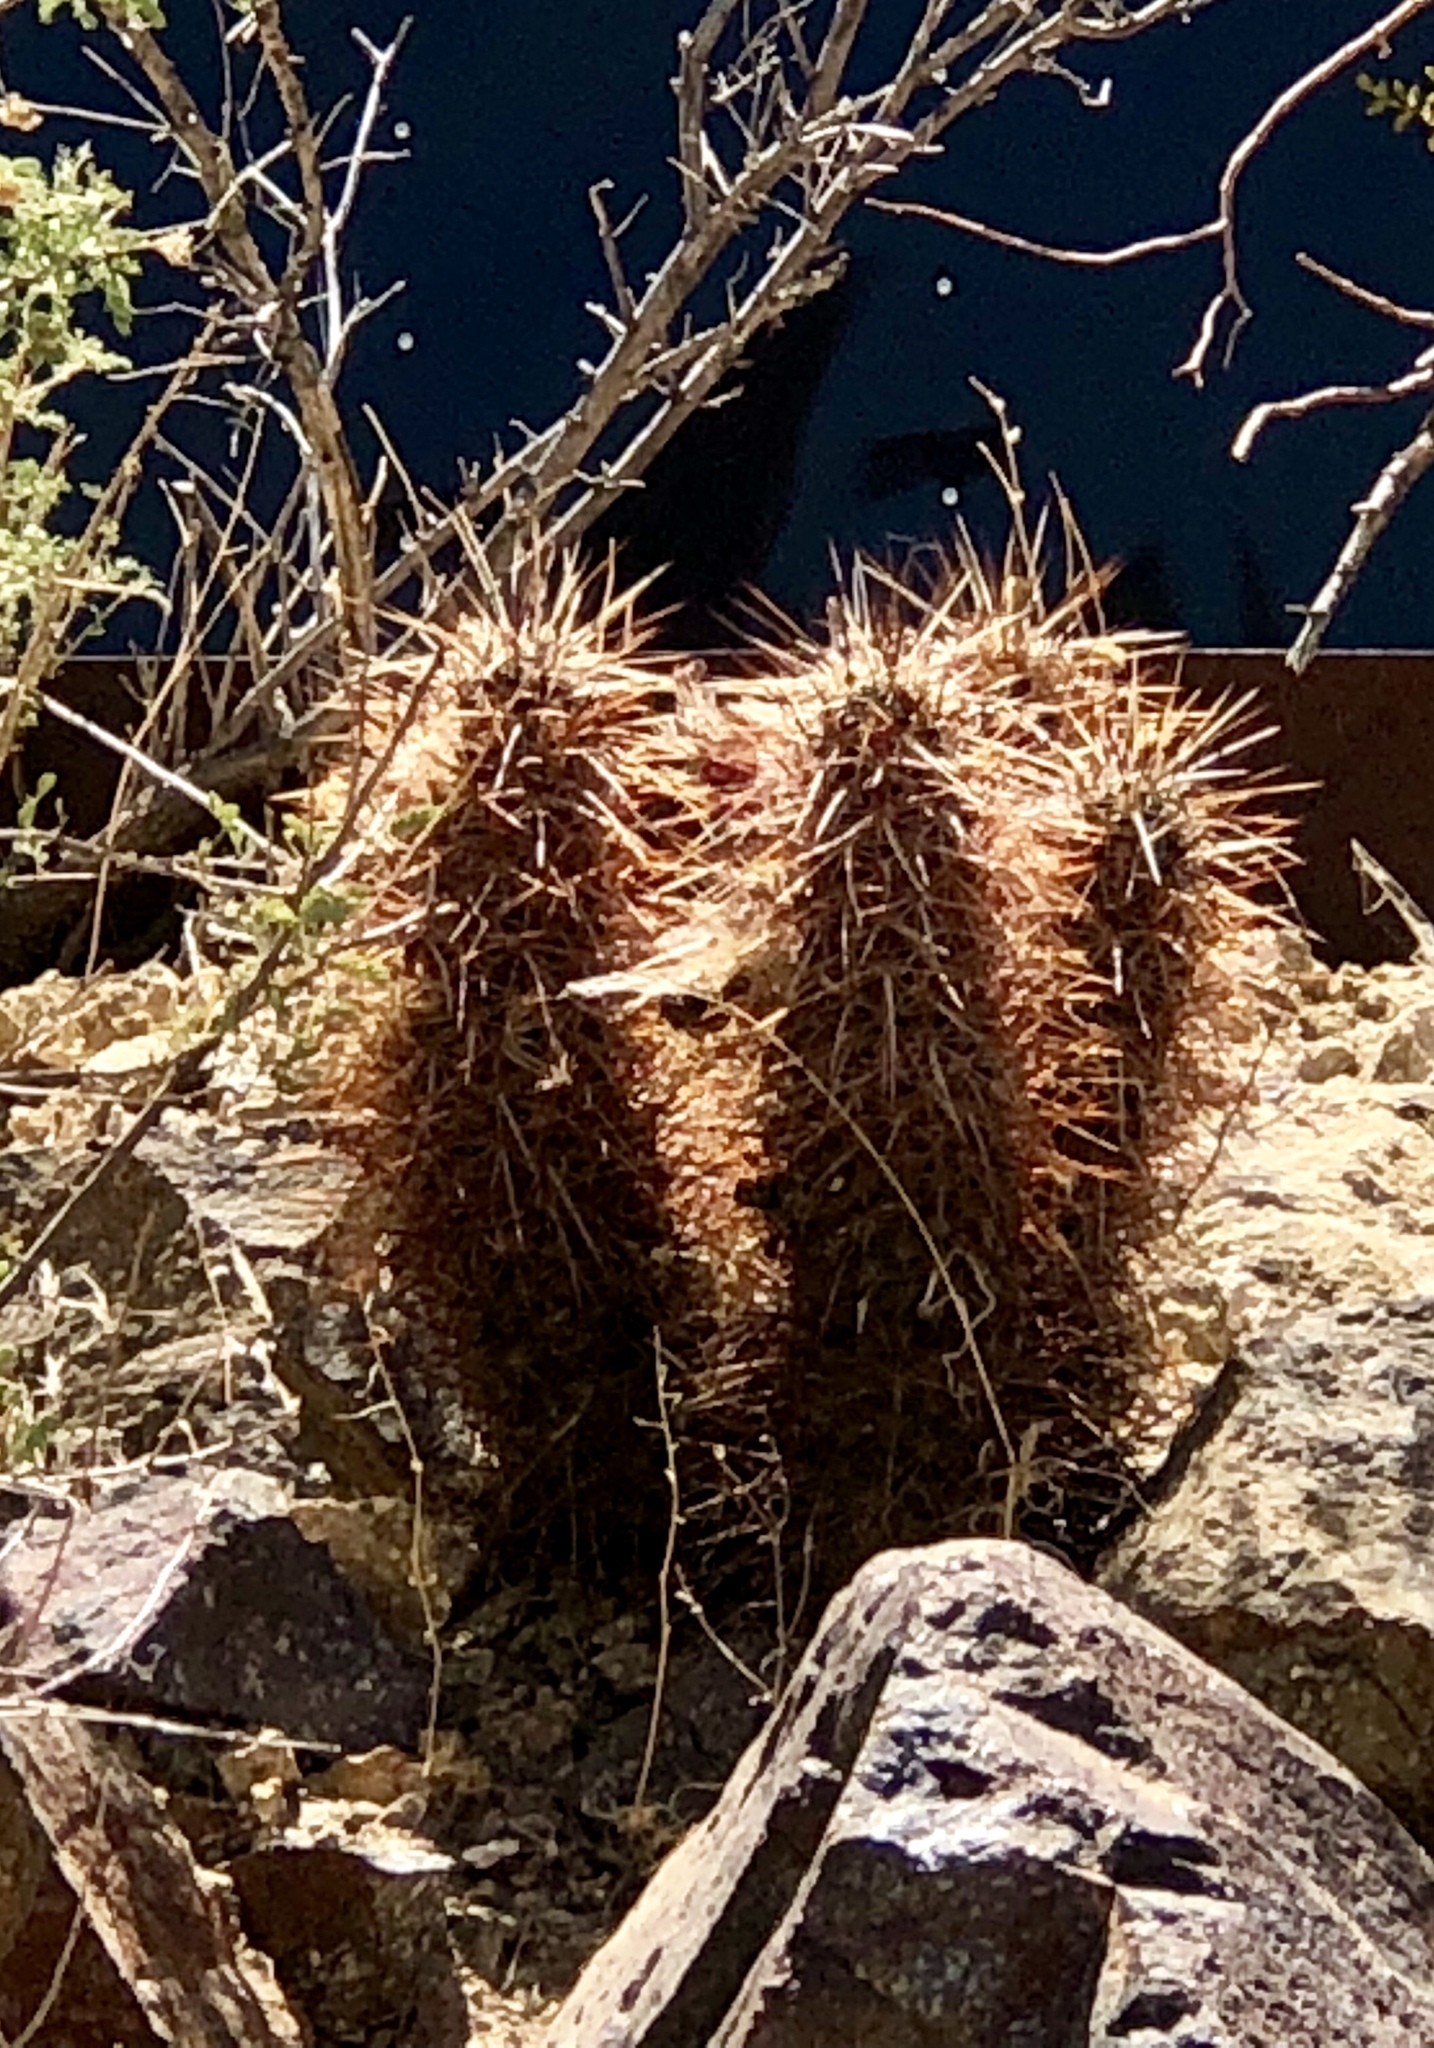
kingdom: Plantae
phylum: Tracheophyta
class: Magnoliopsida
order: Caryophyllales
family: Cactaceae
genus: Echinocereus
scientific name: Echinocereus engelmannii
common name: Engelmann's hedgehog cactus
